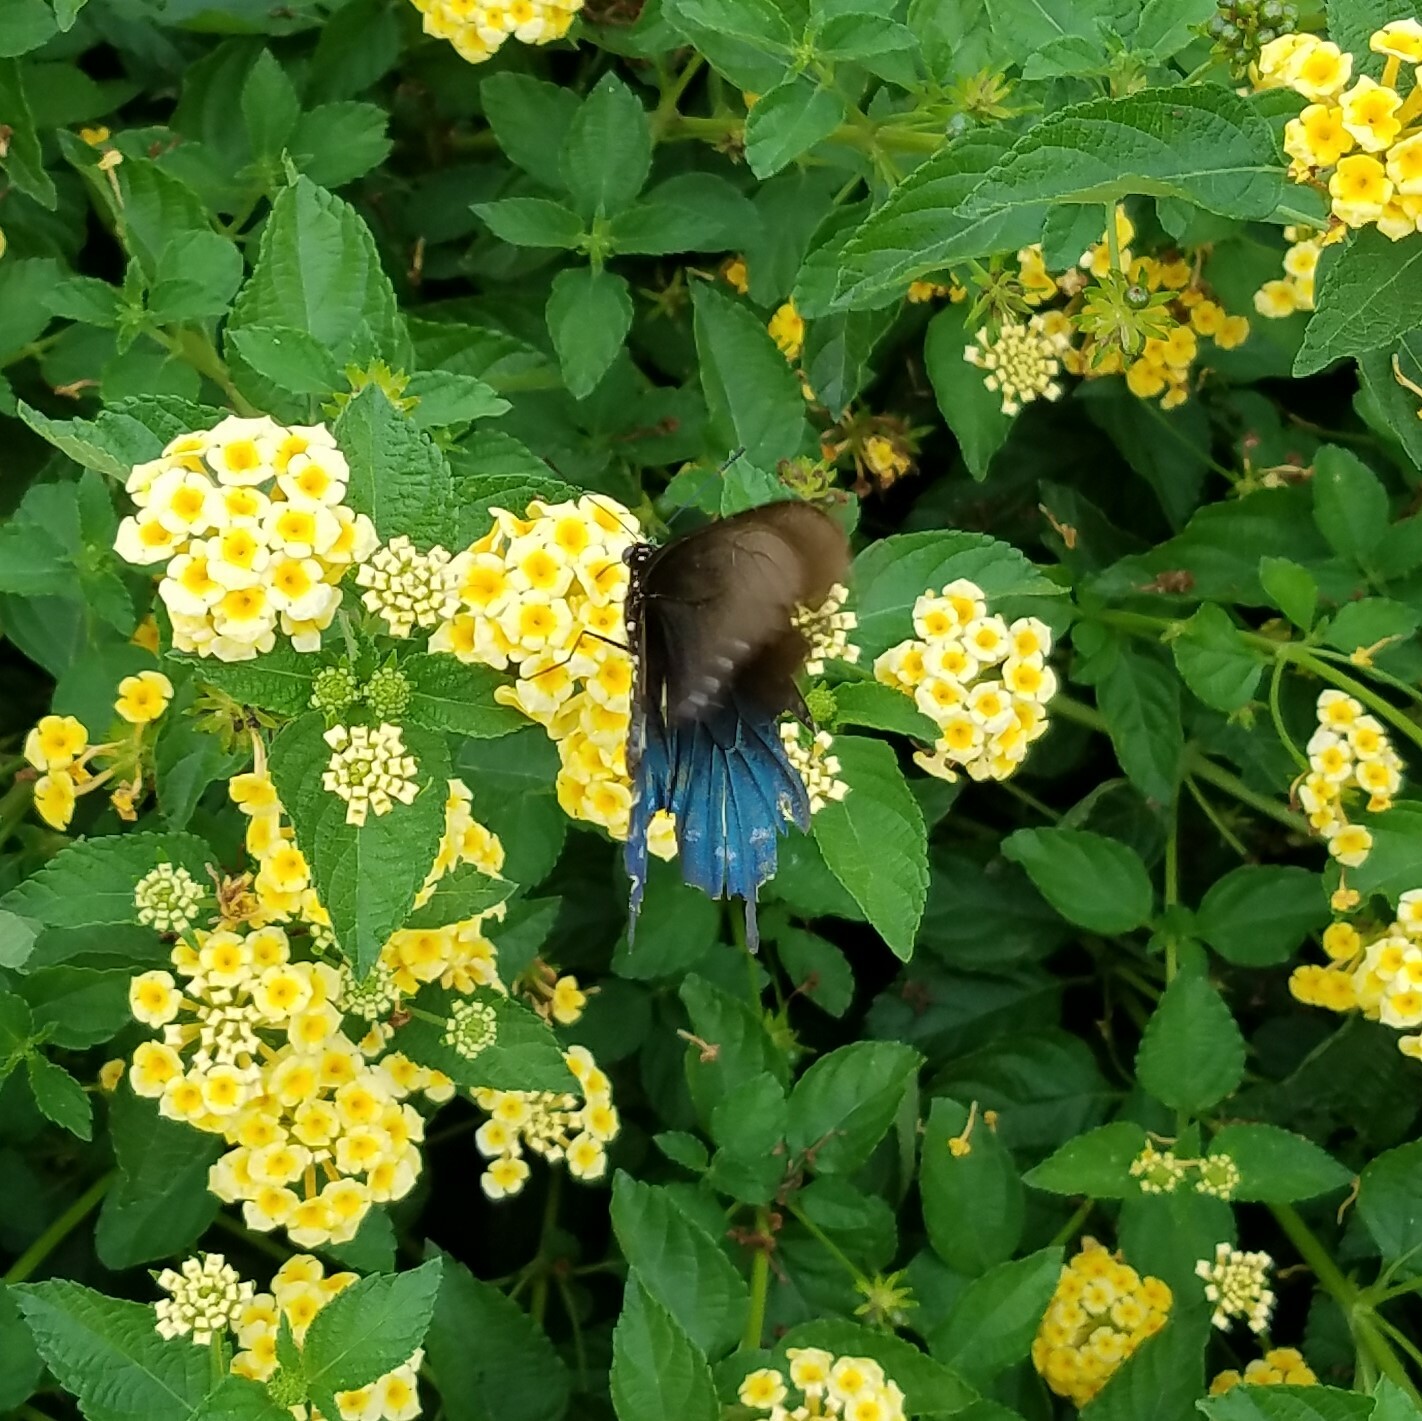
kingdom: Animalia
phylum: Arthropoda
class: Insecta
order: Lepidoptera
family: Papilionidae
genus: Battus
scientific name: Battus philenor
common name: Pipevine swallowtail
